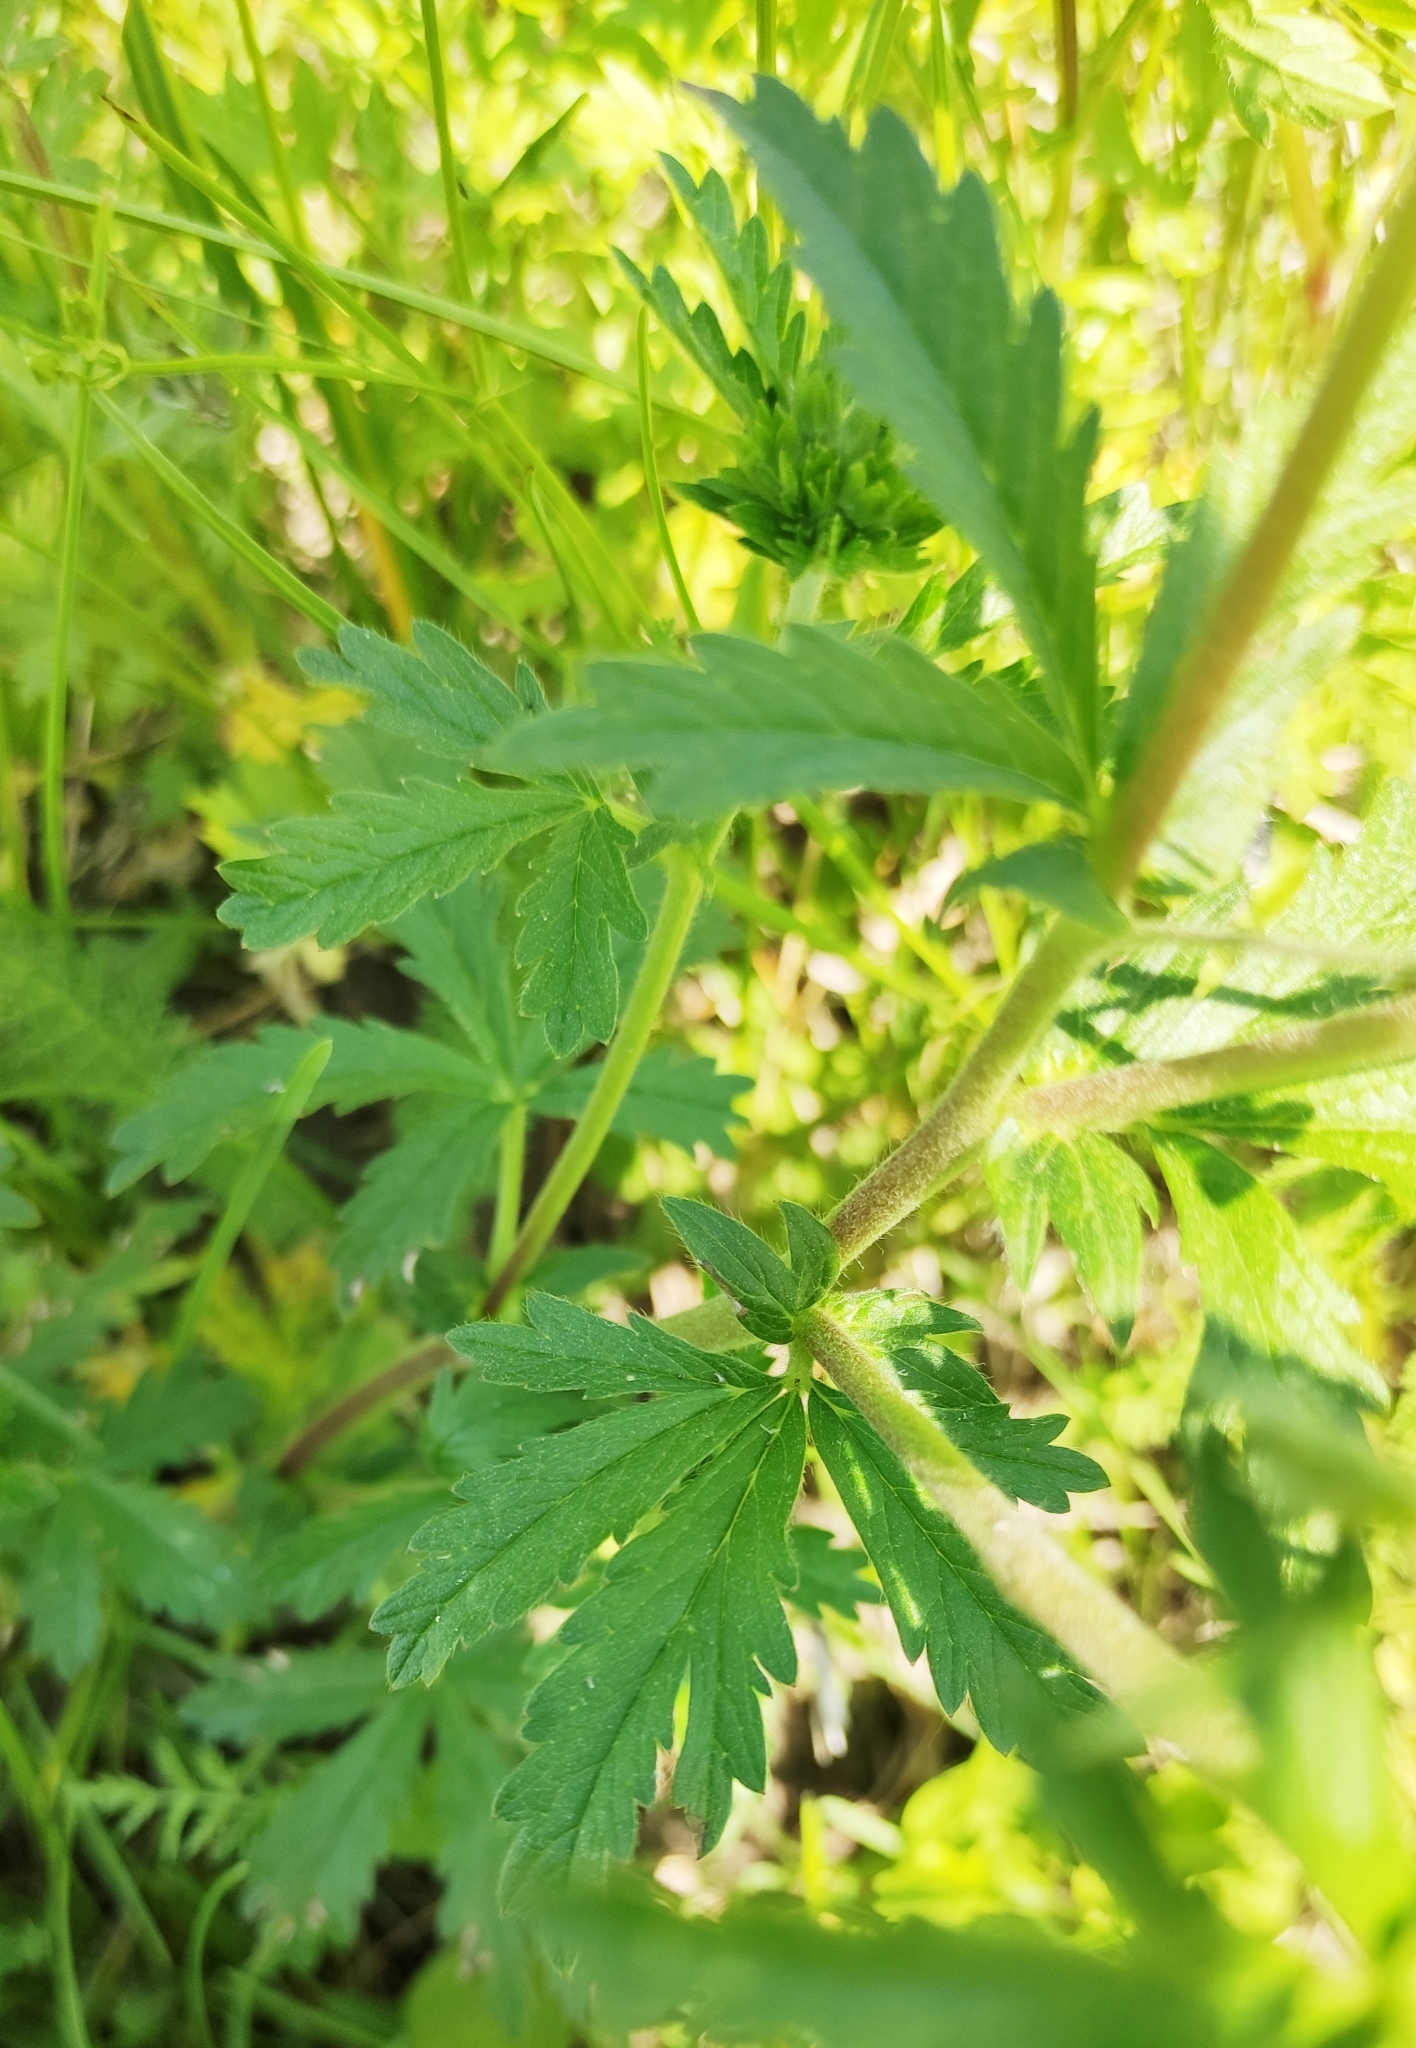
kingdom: Plantae
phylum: Tracheophyta
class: Magnoliopsida
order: Rosales
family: Rosaceae
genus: Potentilla
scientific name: Potentilla intermedia
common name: Downy cinquefoil
